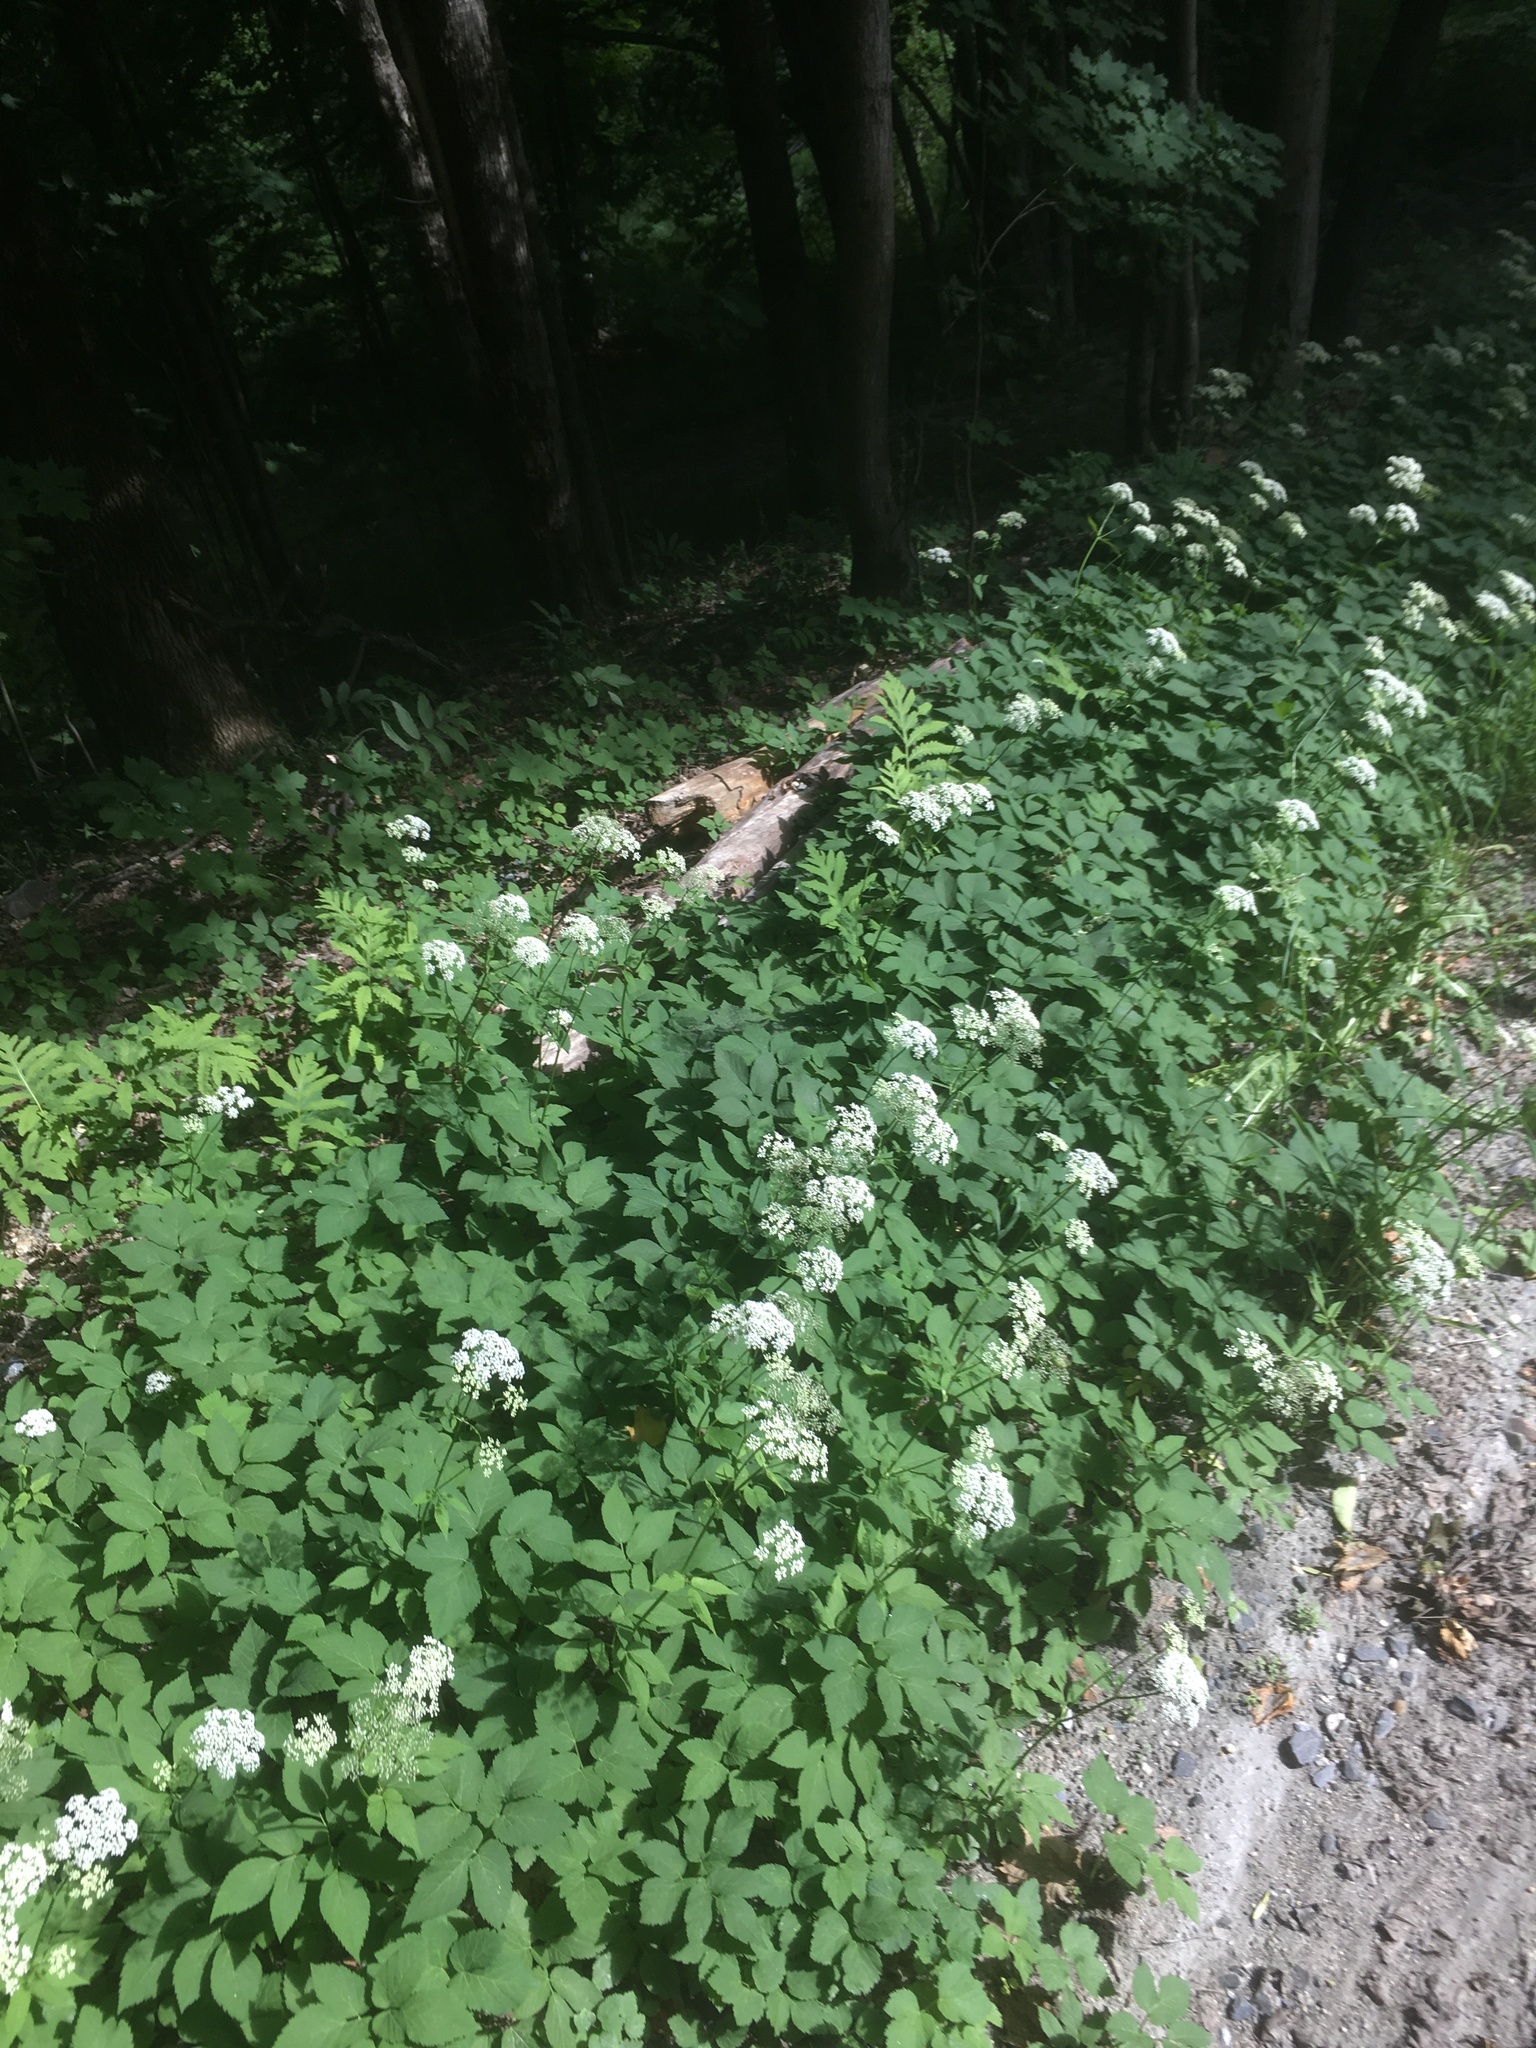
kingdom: Plantae
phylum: Tracheophyta
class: Magnoliopsida
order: Apiales
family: Apiaceae
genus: Aegopodium
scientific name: Aegopodium podagraria
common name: Ground-elder
